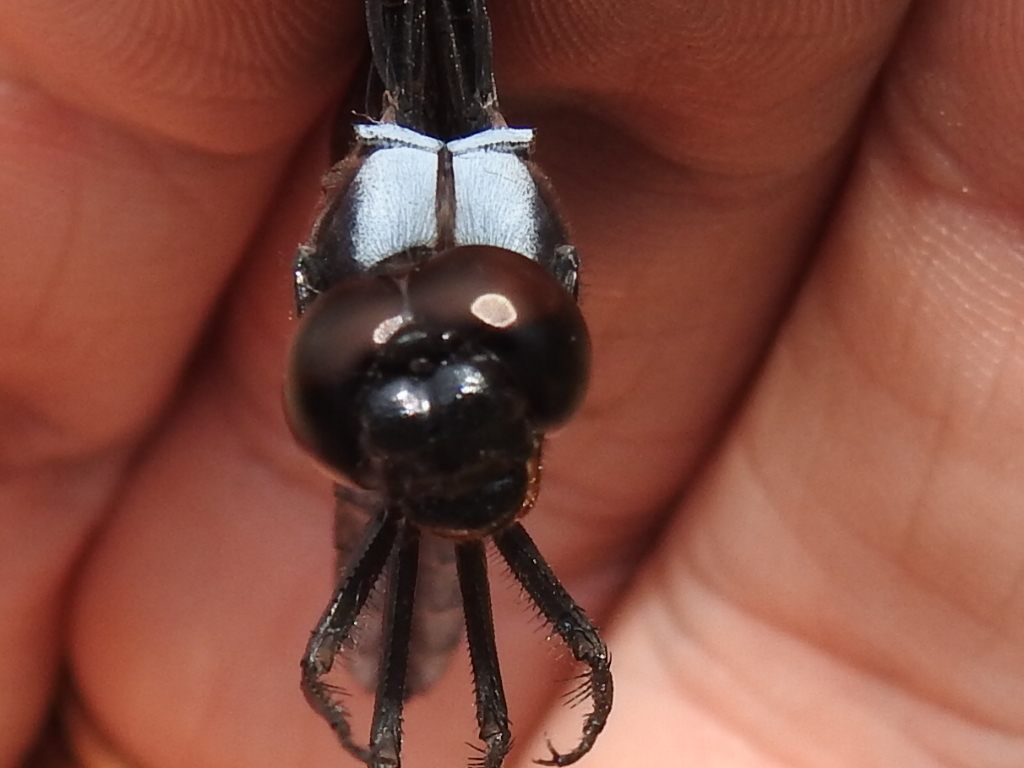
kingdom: Animalia
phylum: Arthropoda
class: Insecta
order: Odonata
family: Libellulidae
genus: Libellula
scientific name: Libellula luctuosa
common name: Widow skimmer
